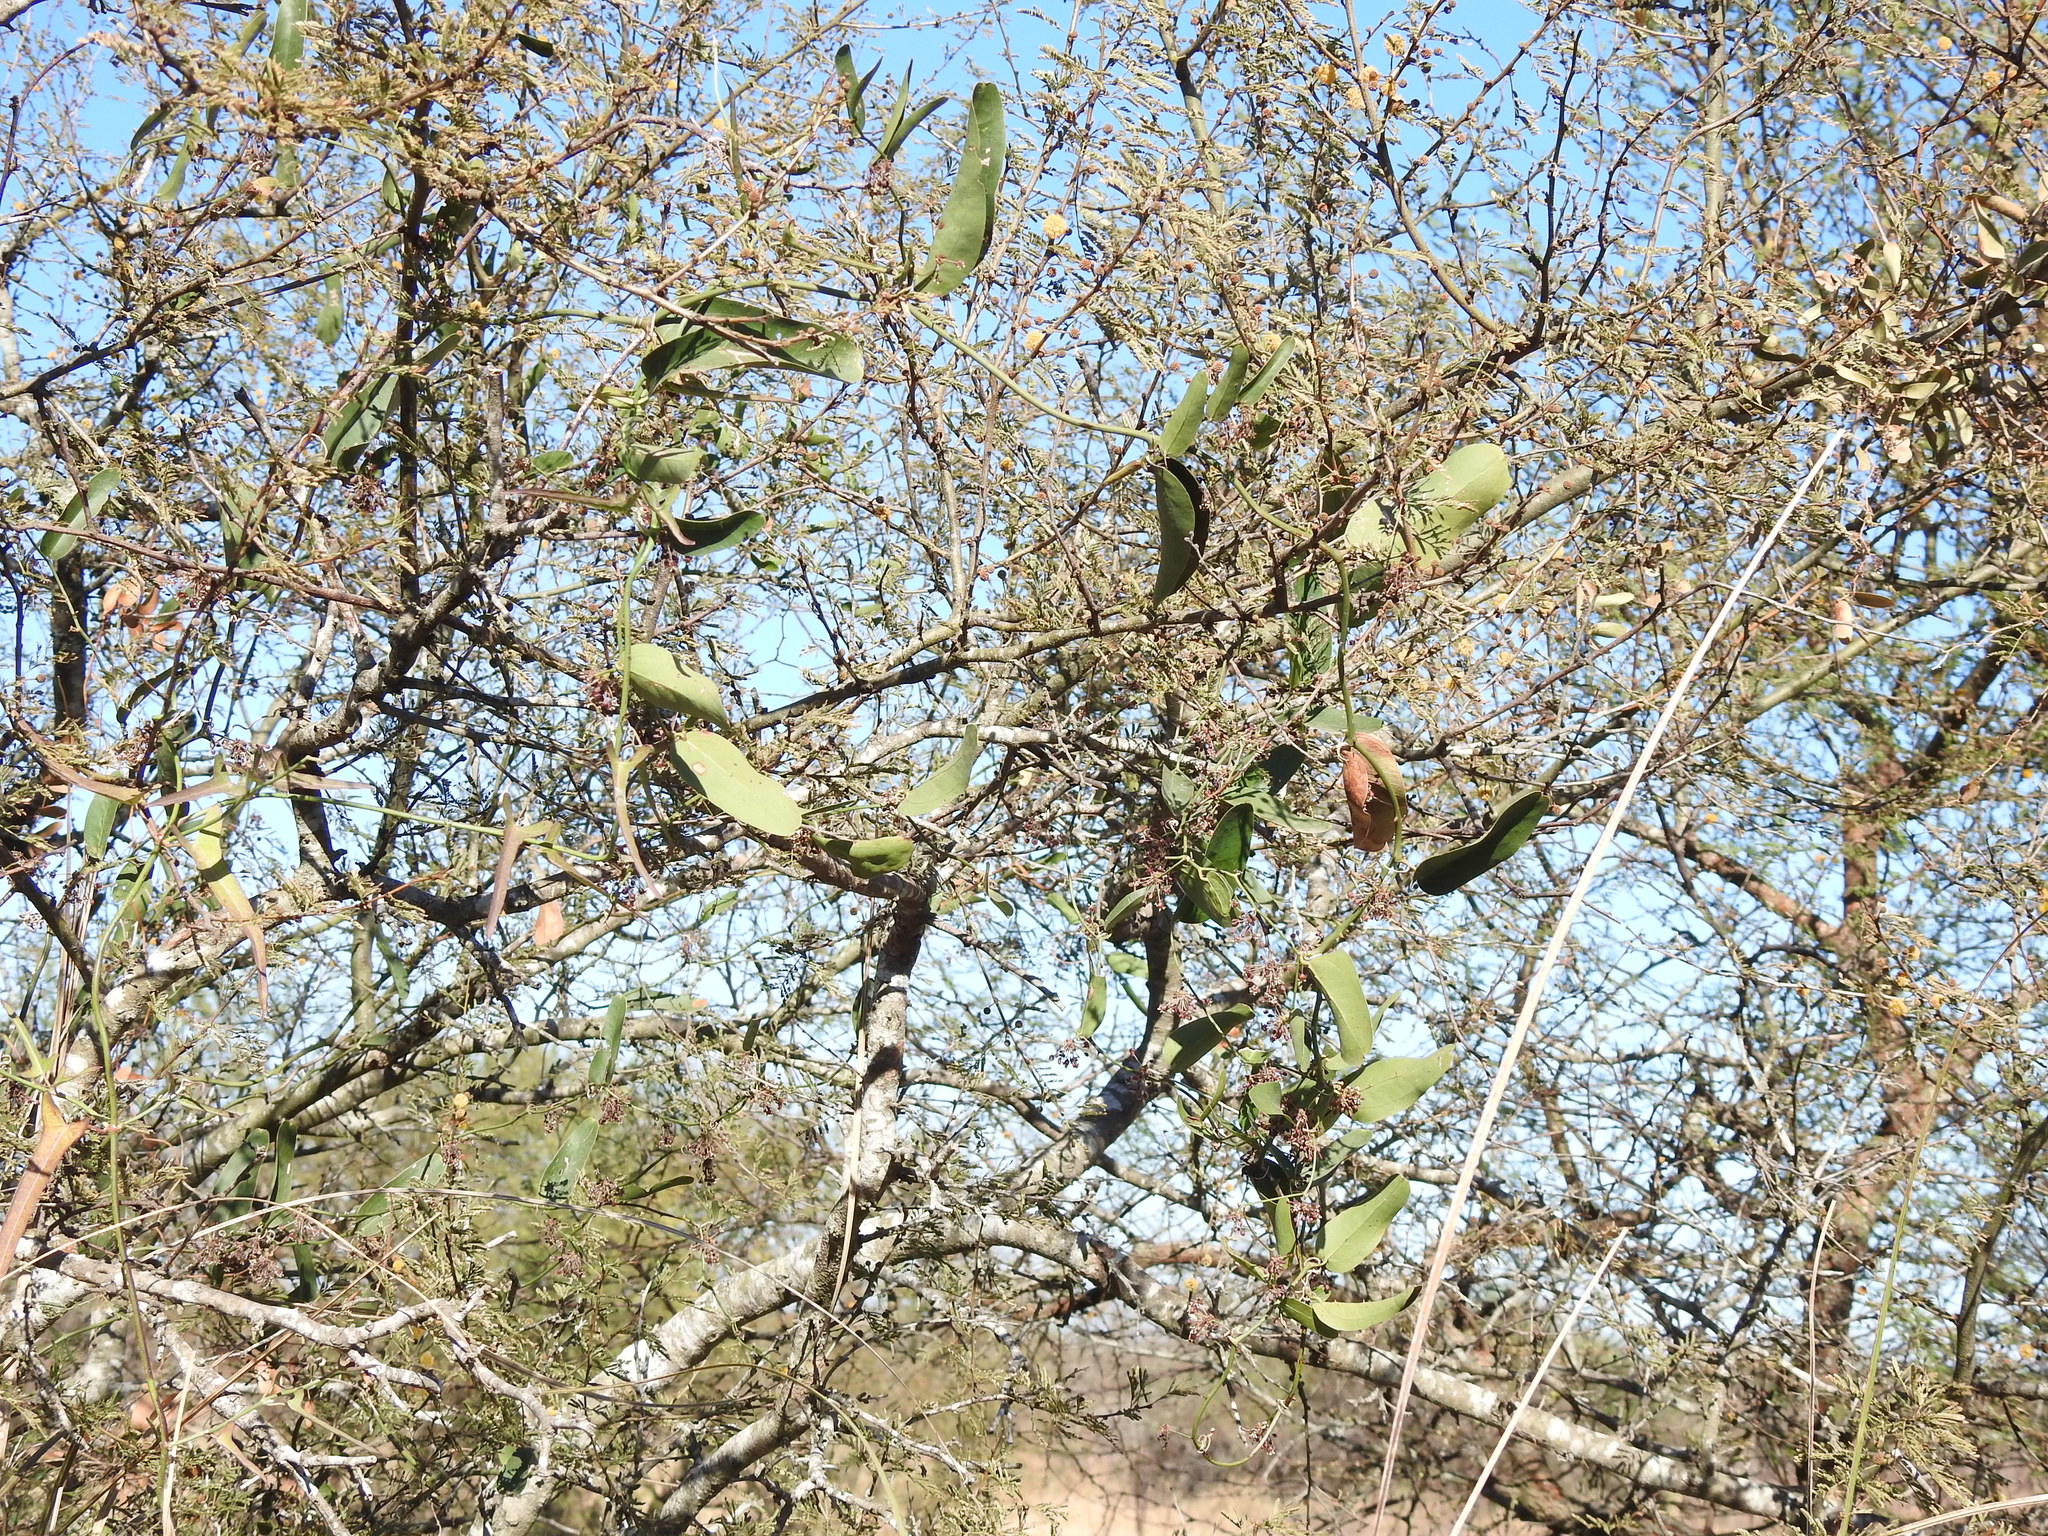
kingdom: Plantae
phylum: Tracheophyta
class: Liliopsida
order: Liliales
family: Smilacaceae
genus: Smilax
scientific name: Smilax campestris
